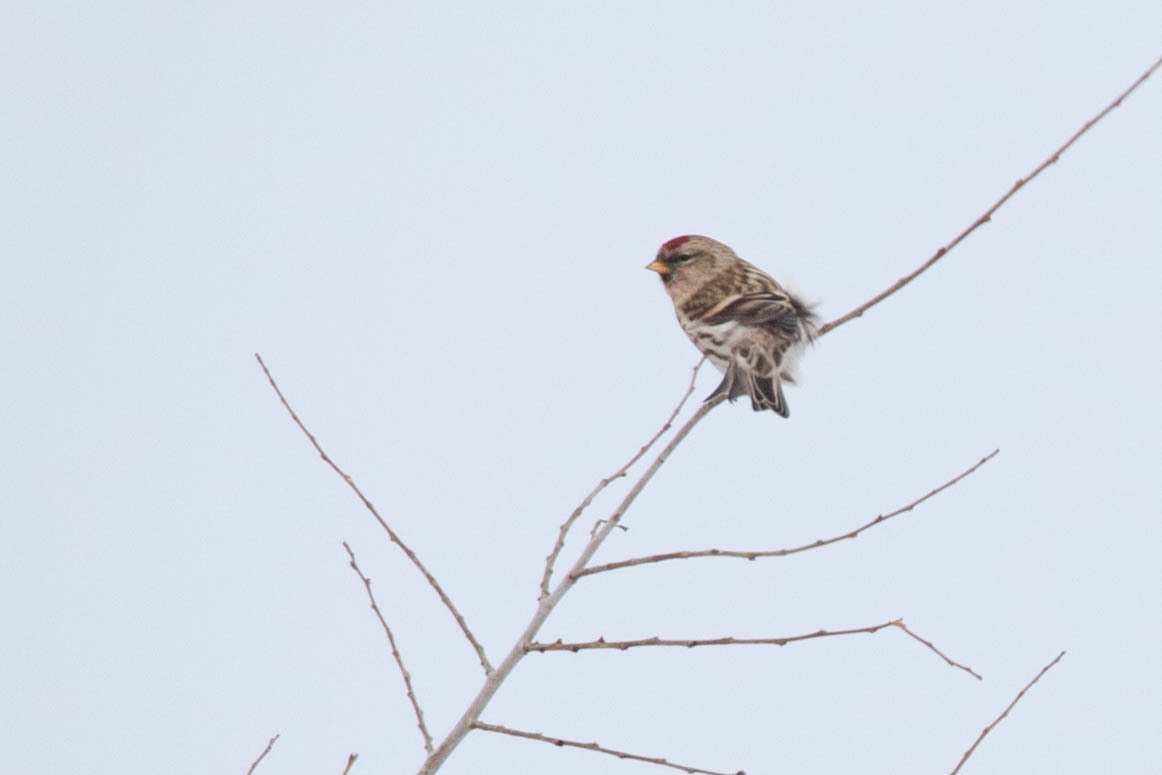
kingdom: Animalia
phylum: Chordata
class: Aves
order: Passeriformes
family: Fringillidae
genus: Acanthis
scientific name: Acanthis flammea
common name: Common redpoll
